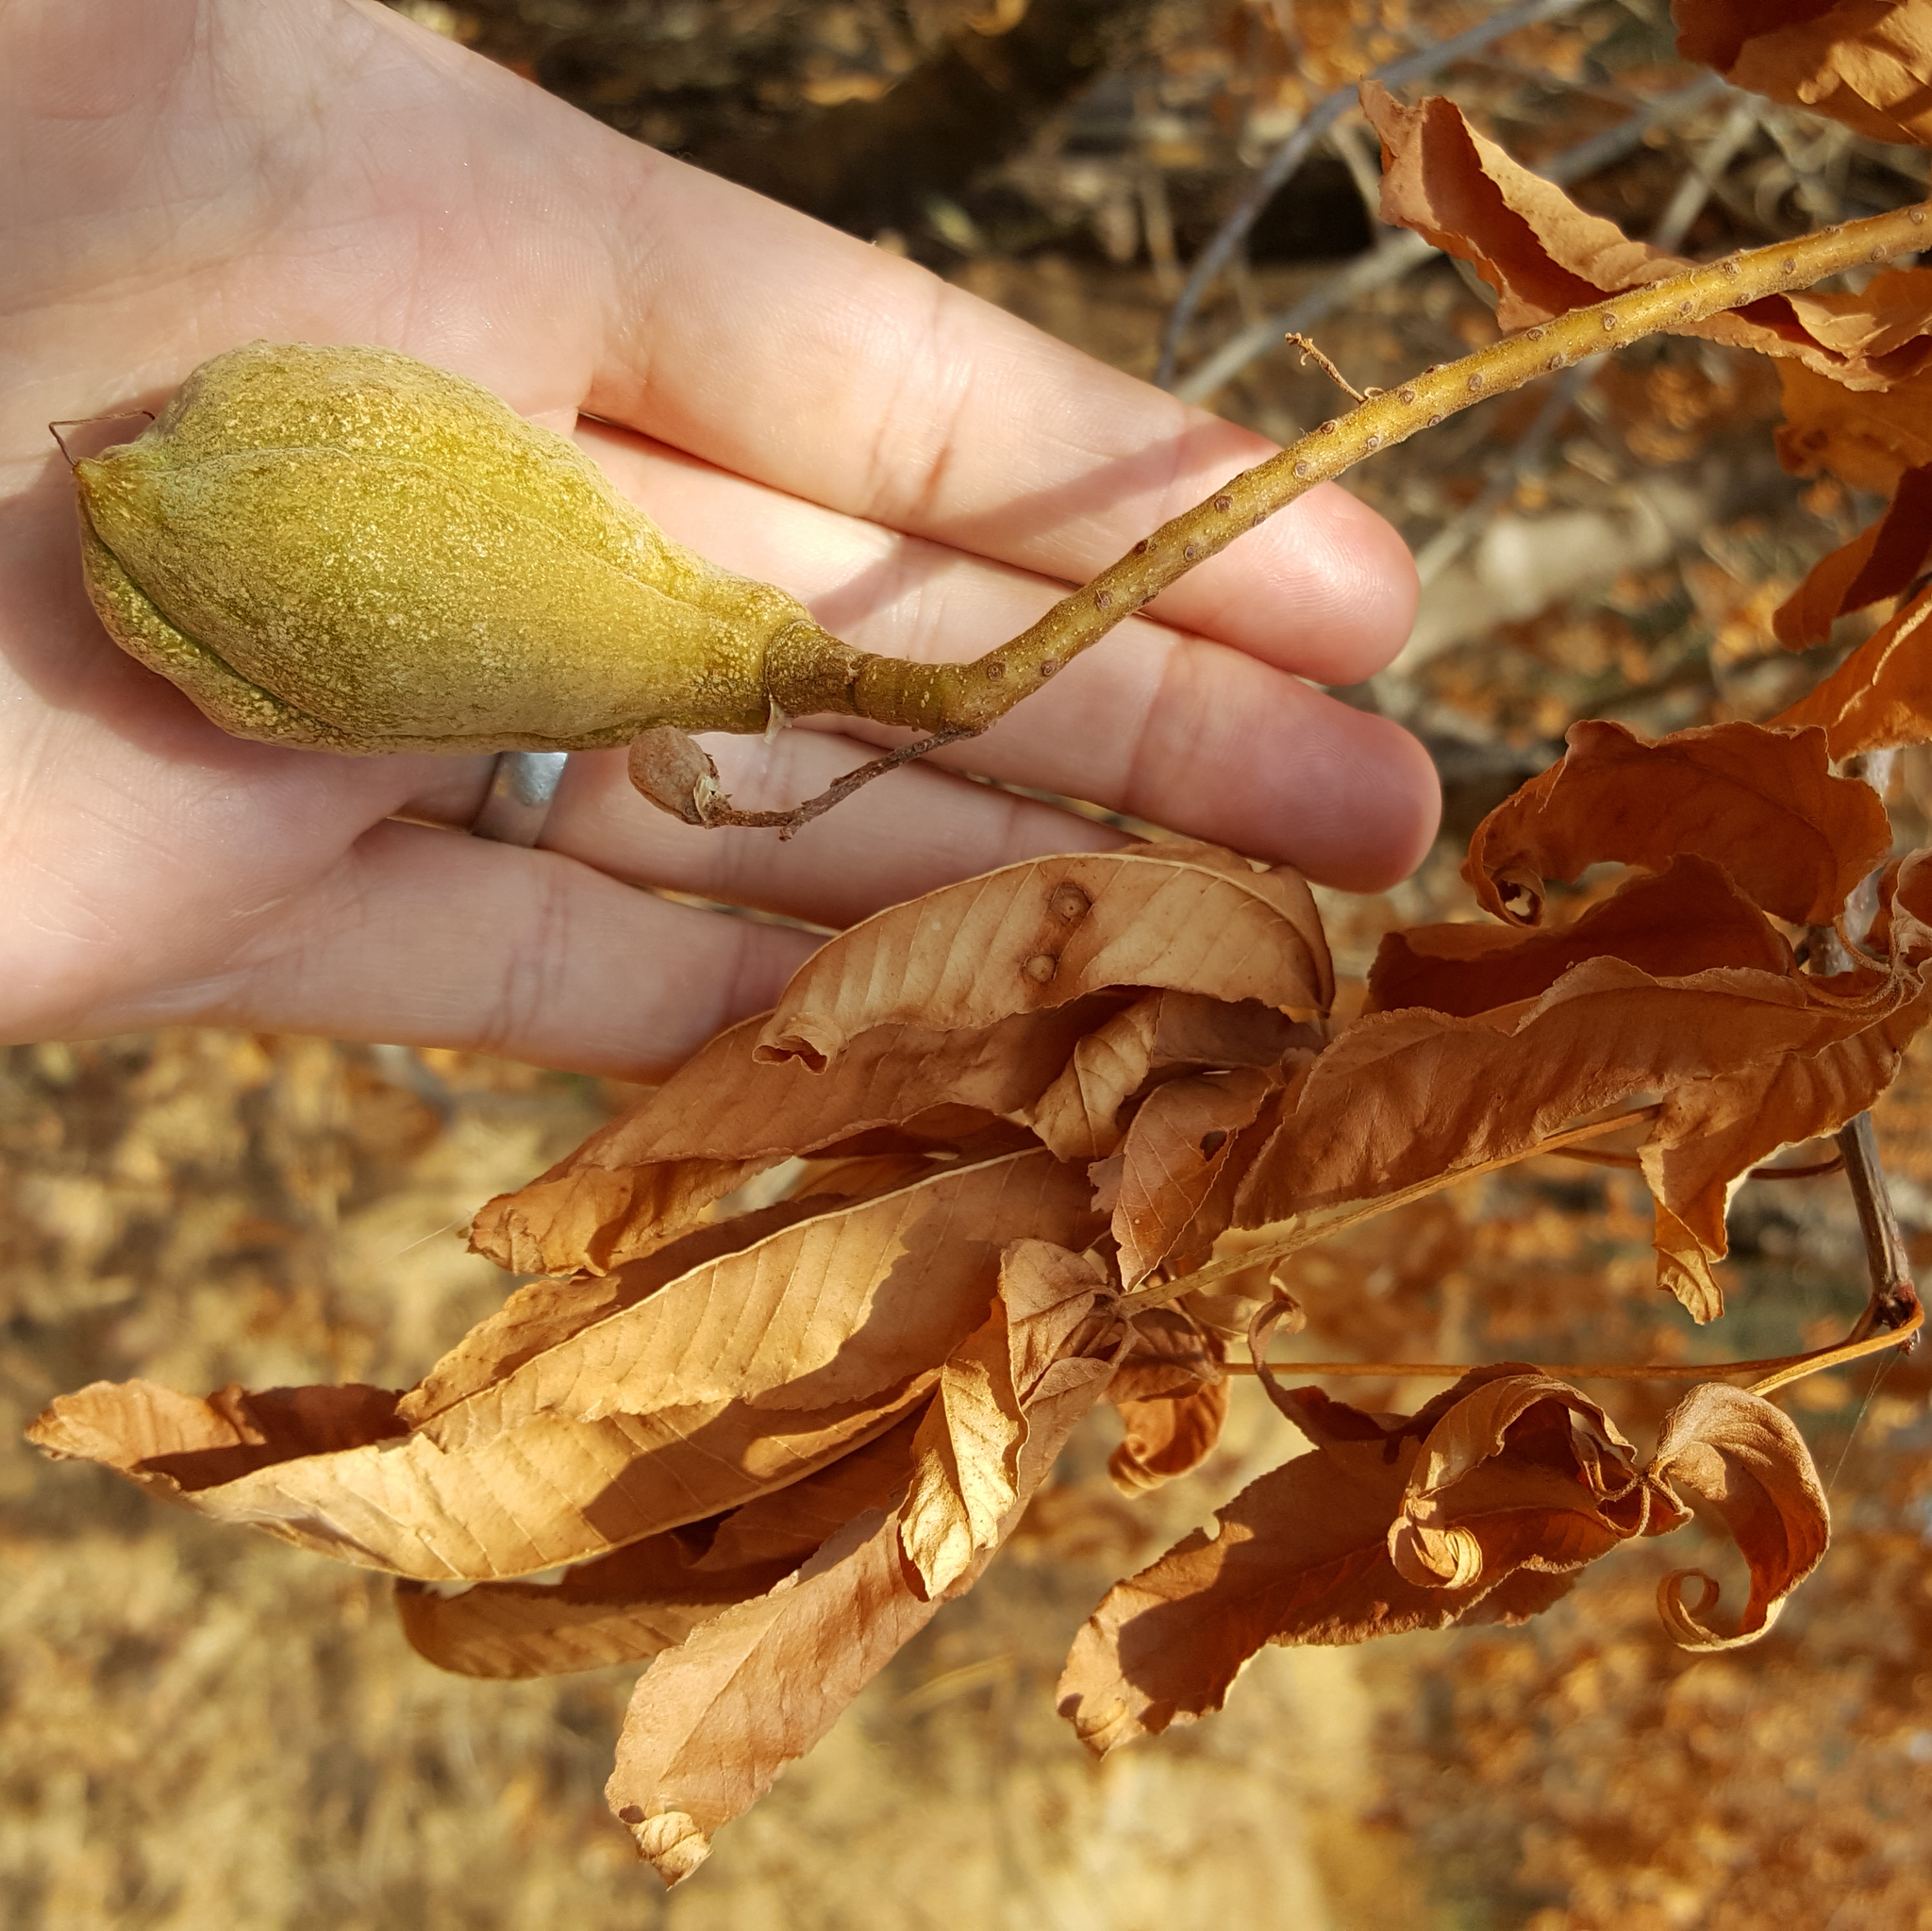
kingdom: Plantae
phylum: Tracheophyta
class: Magnoliopsida
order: Sapindales
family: Sapindaceae
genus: Aesculus
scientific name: Aesculus californica
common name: California buckeye
